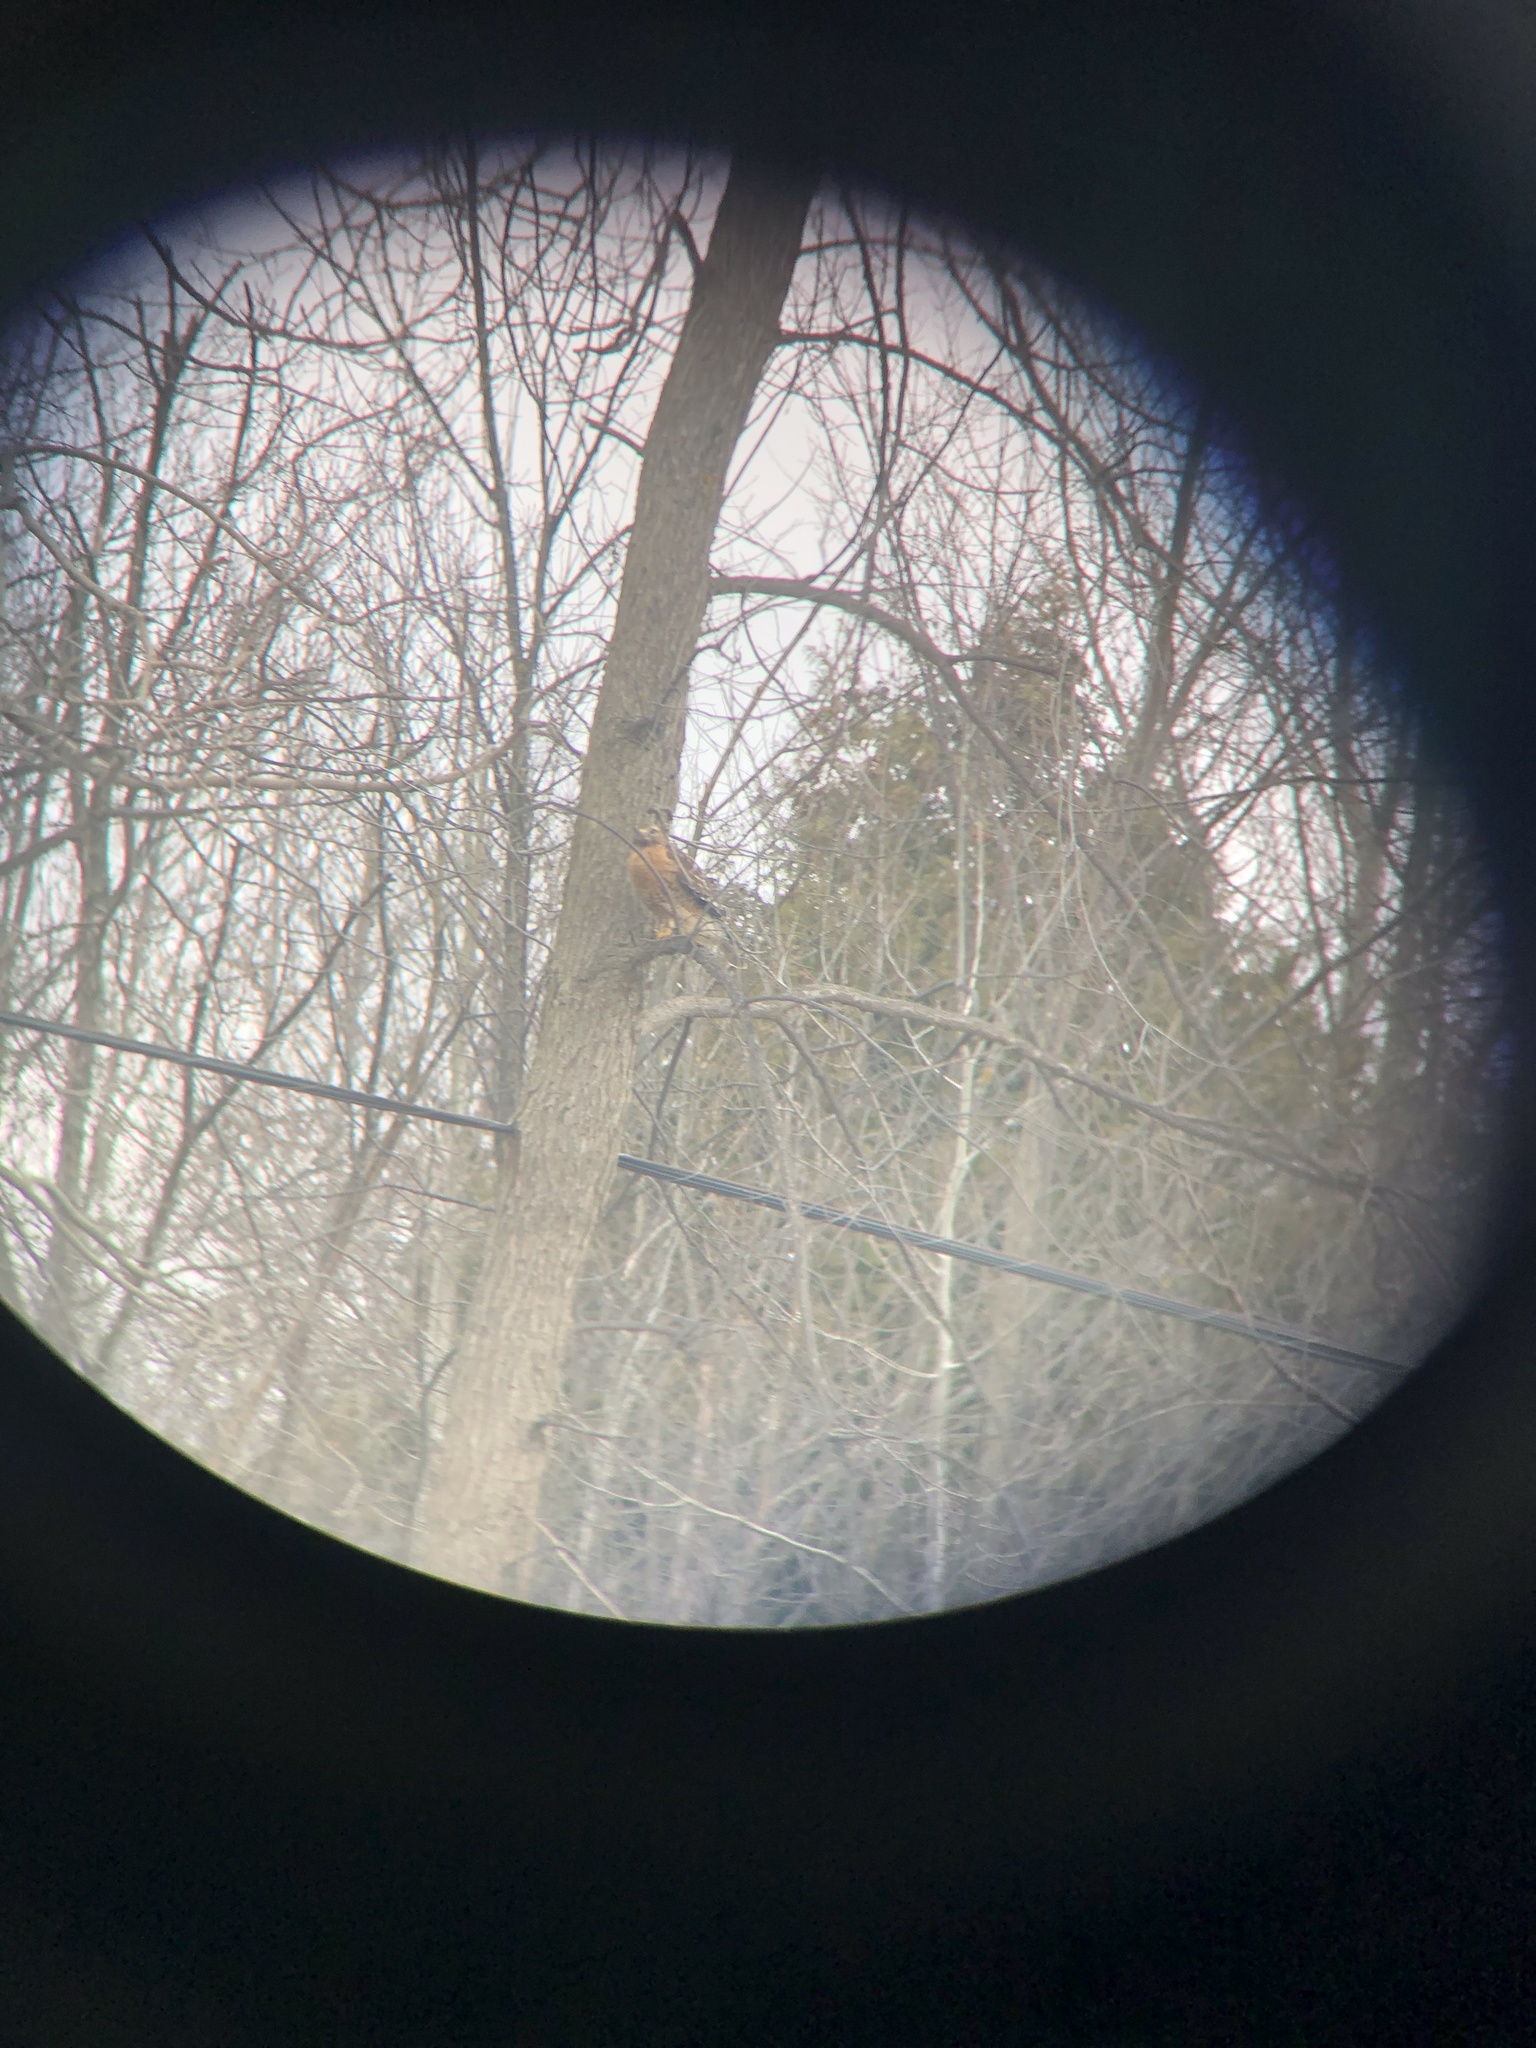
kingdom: Animalia
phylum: Chordata
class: Aves
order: Accipitriformes
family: Accipitridae
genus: Buteo
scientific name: Buteo lineatus
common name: Red-shouldered hawk
